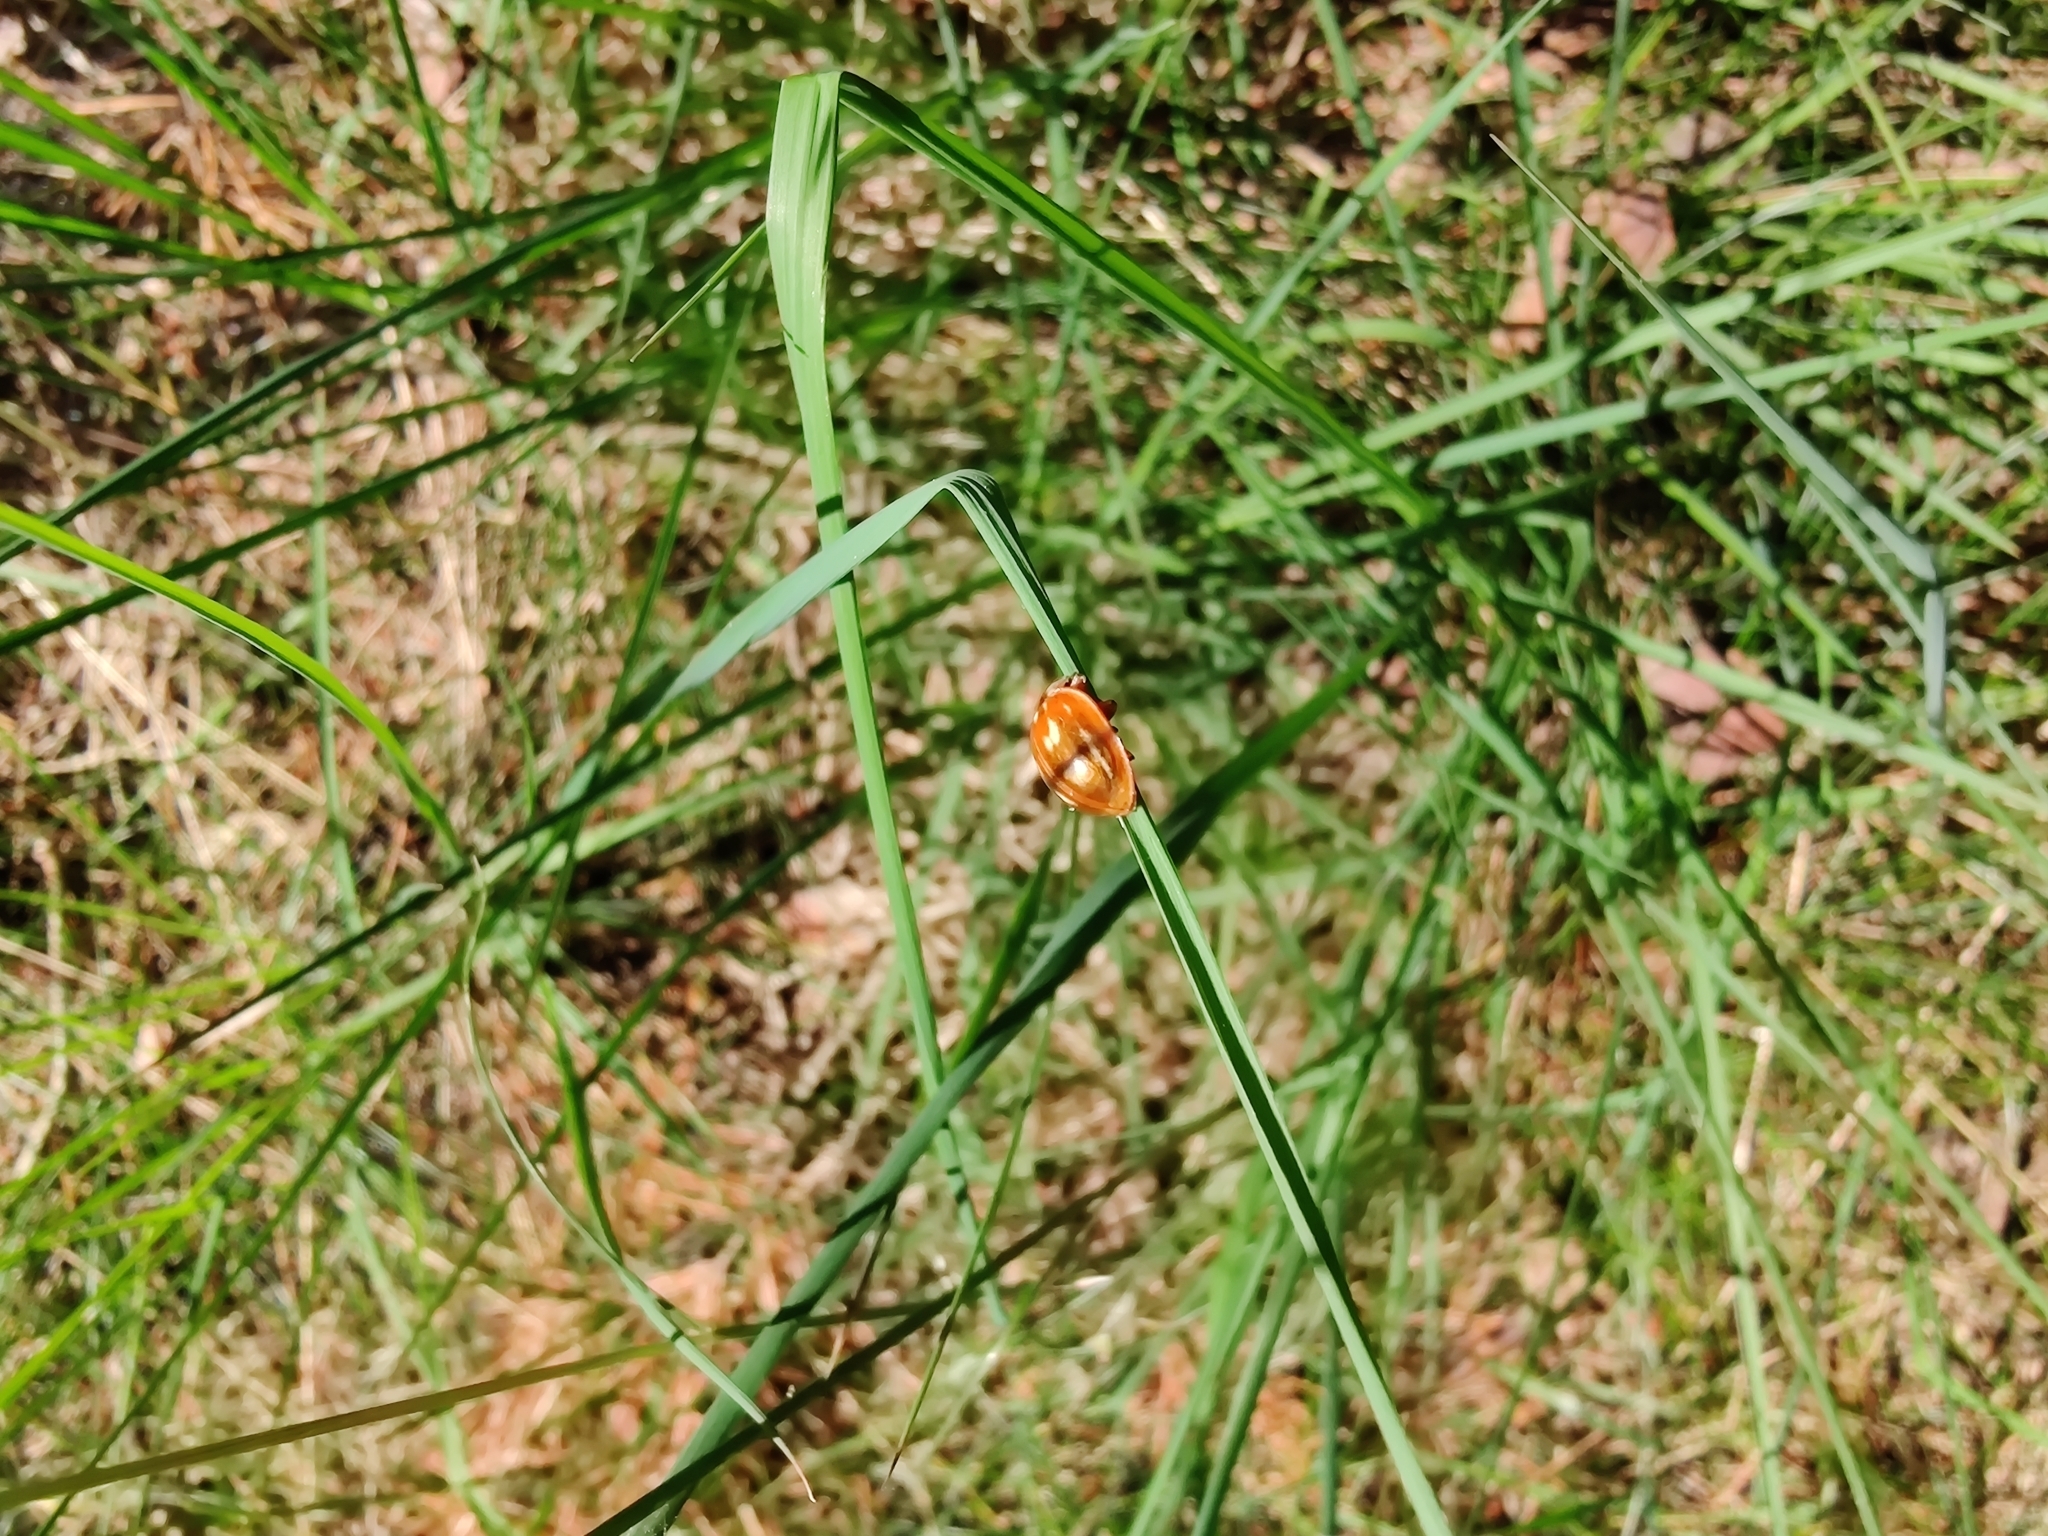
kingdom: Animalia
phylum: Arthropoda
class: Insecta
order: Coleoptera
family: Coccinellidae
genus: Myzia
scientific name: Myzia oblongoguttata
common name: Striped ladybird
